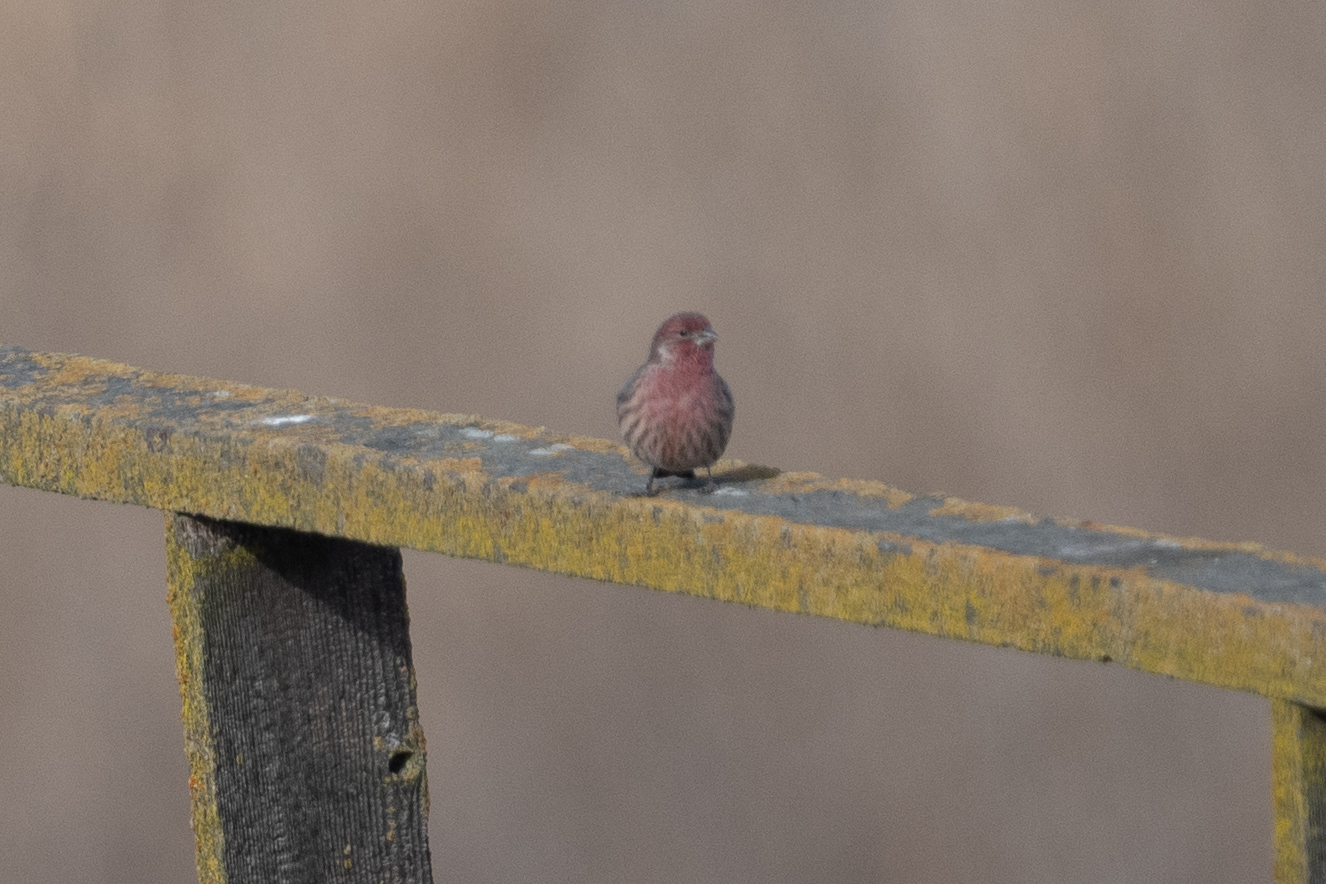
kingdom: Animalia
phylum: Chordata
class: Aves
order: Passeriformes
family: Fringillidae
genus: Haemorhous
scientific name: Haemorhous mexicanus
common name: House finch
